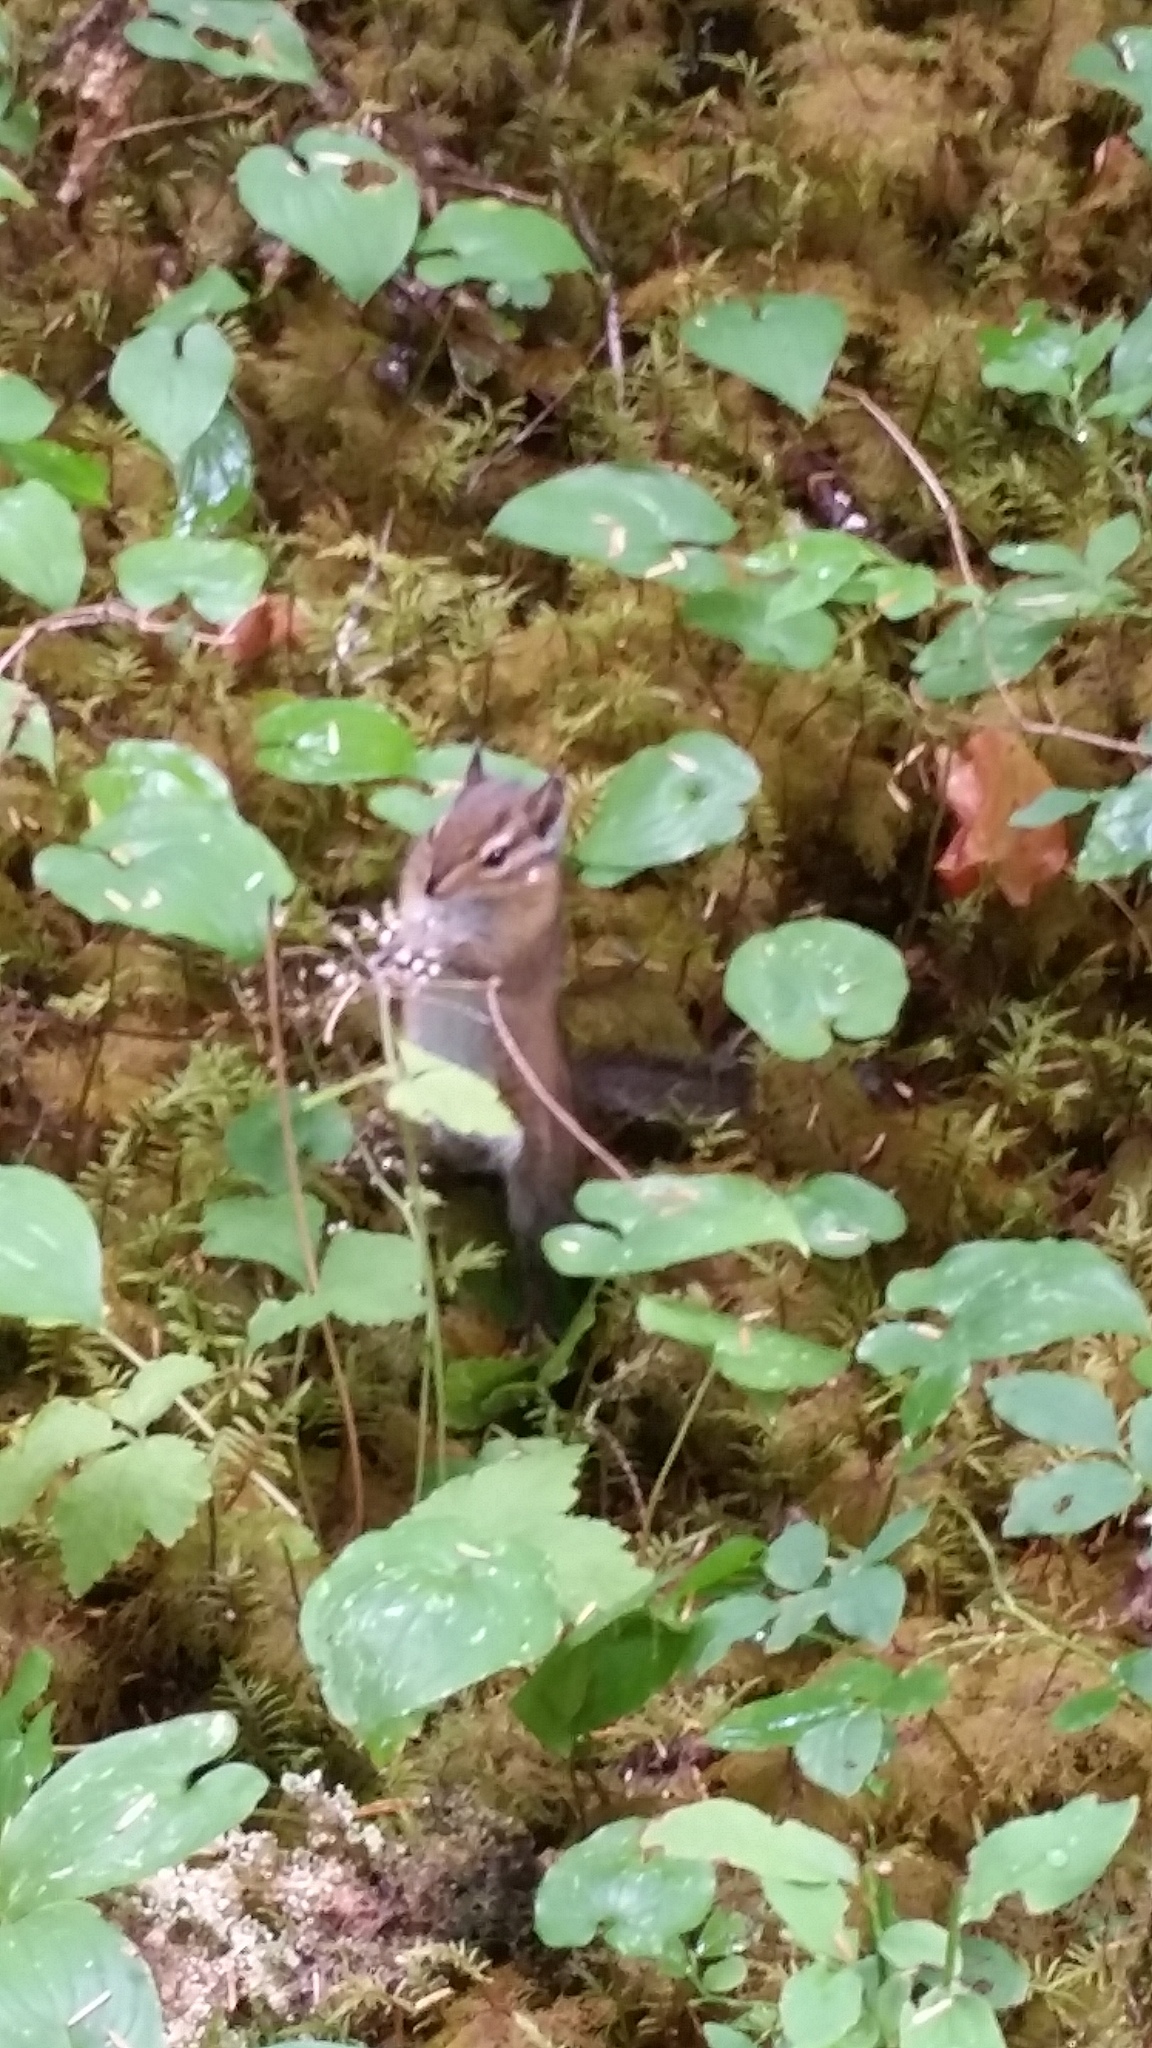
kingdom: Animalia
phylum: Chordata
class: Mammalia
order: Rodentia
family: Sciuridae
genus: Tamias
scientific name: Tamias townsendii
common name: Townsend's chipmunk
